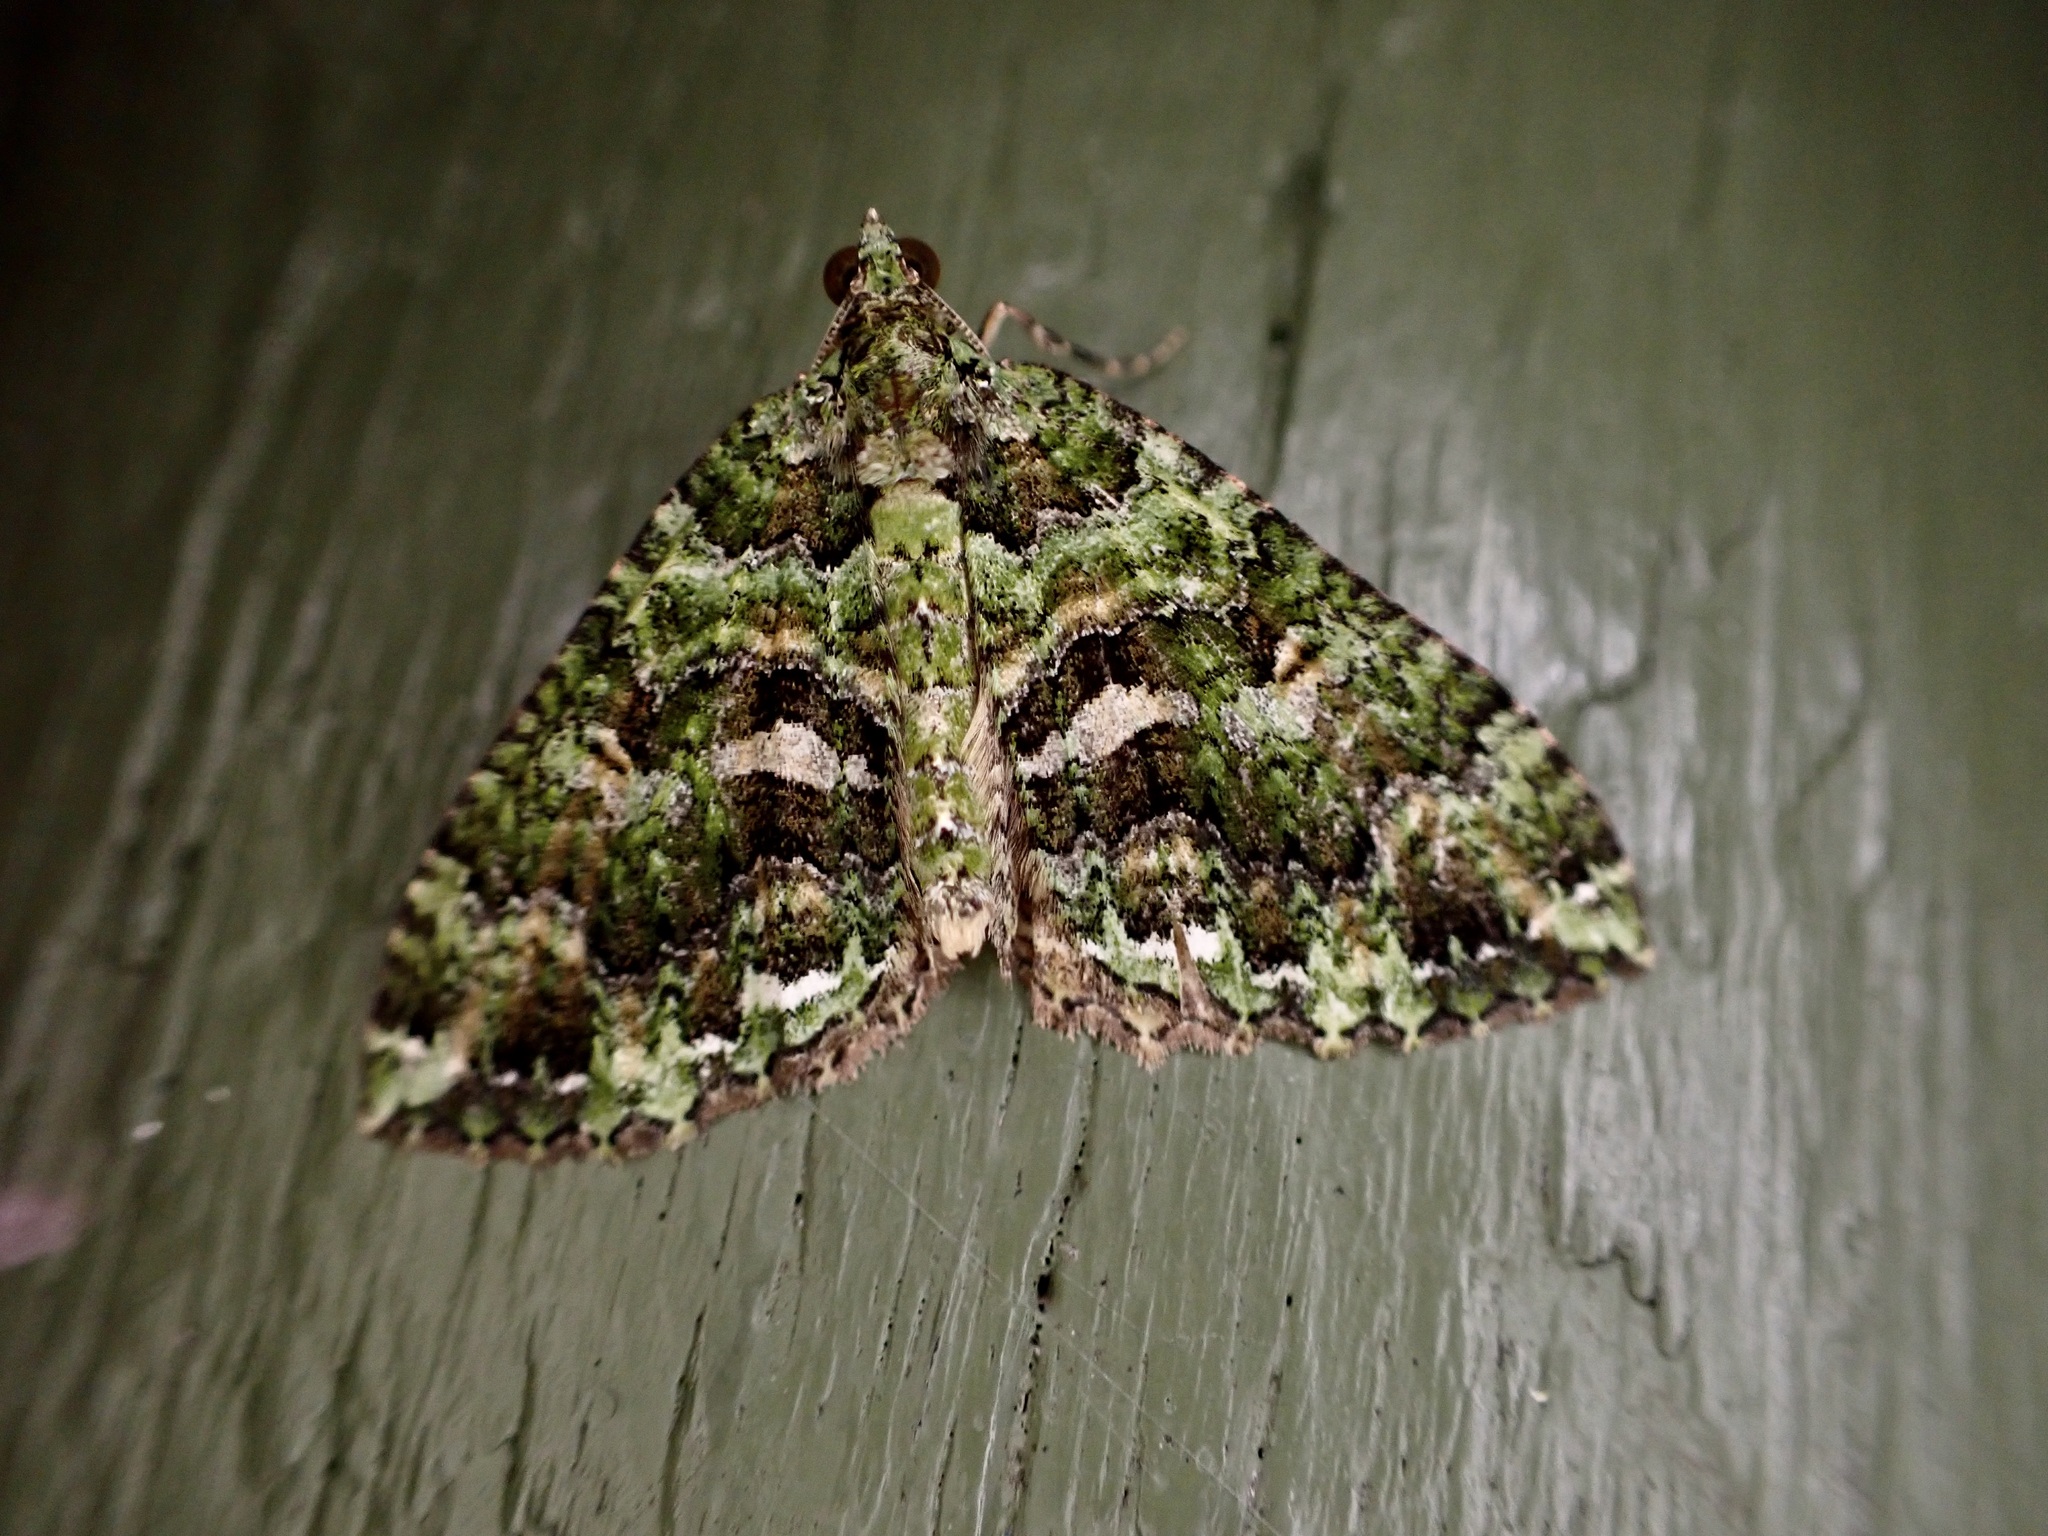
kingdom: Animalia
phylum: Arthropoda
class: Insecta
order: Lepidoptera
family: Geometridae
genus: Austrocidaria
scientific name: Austrocidaria similata
